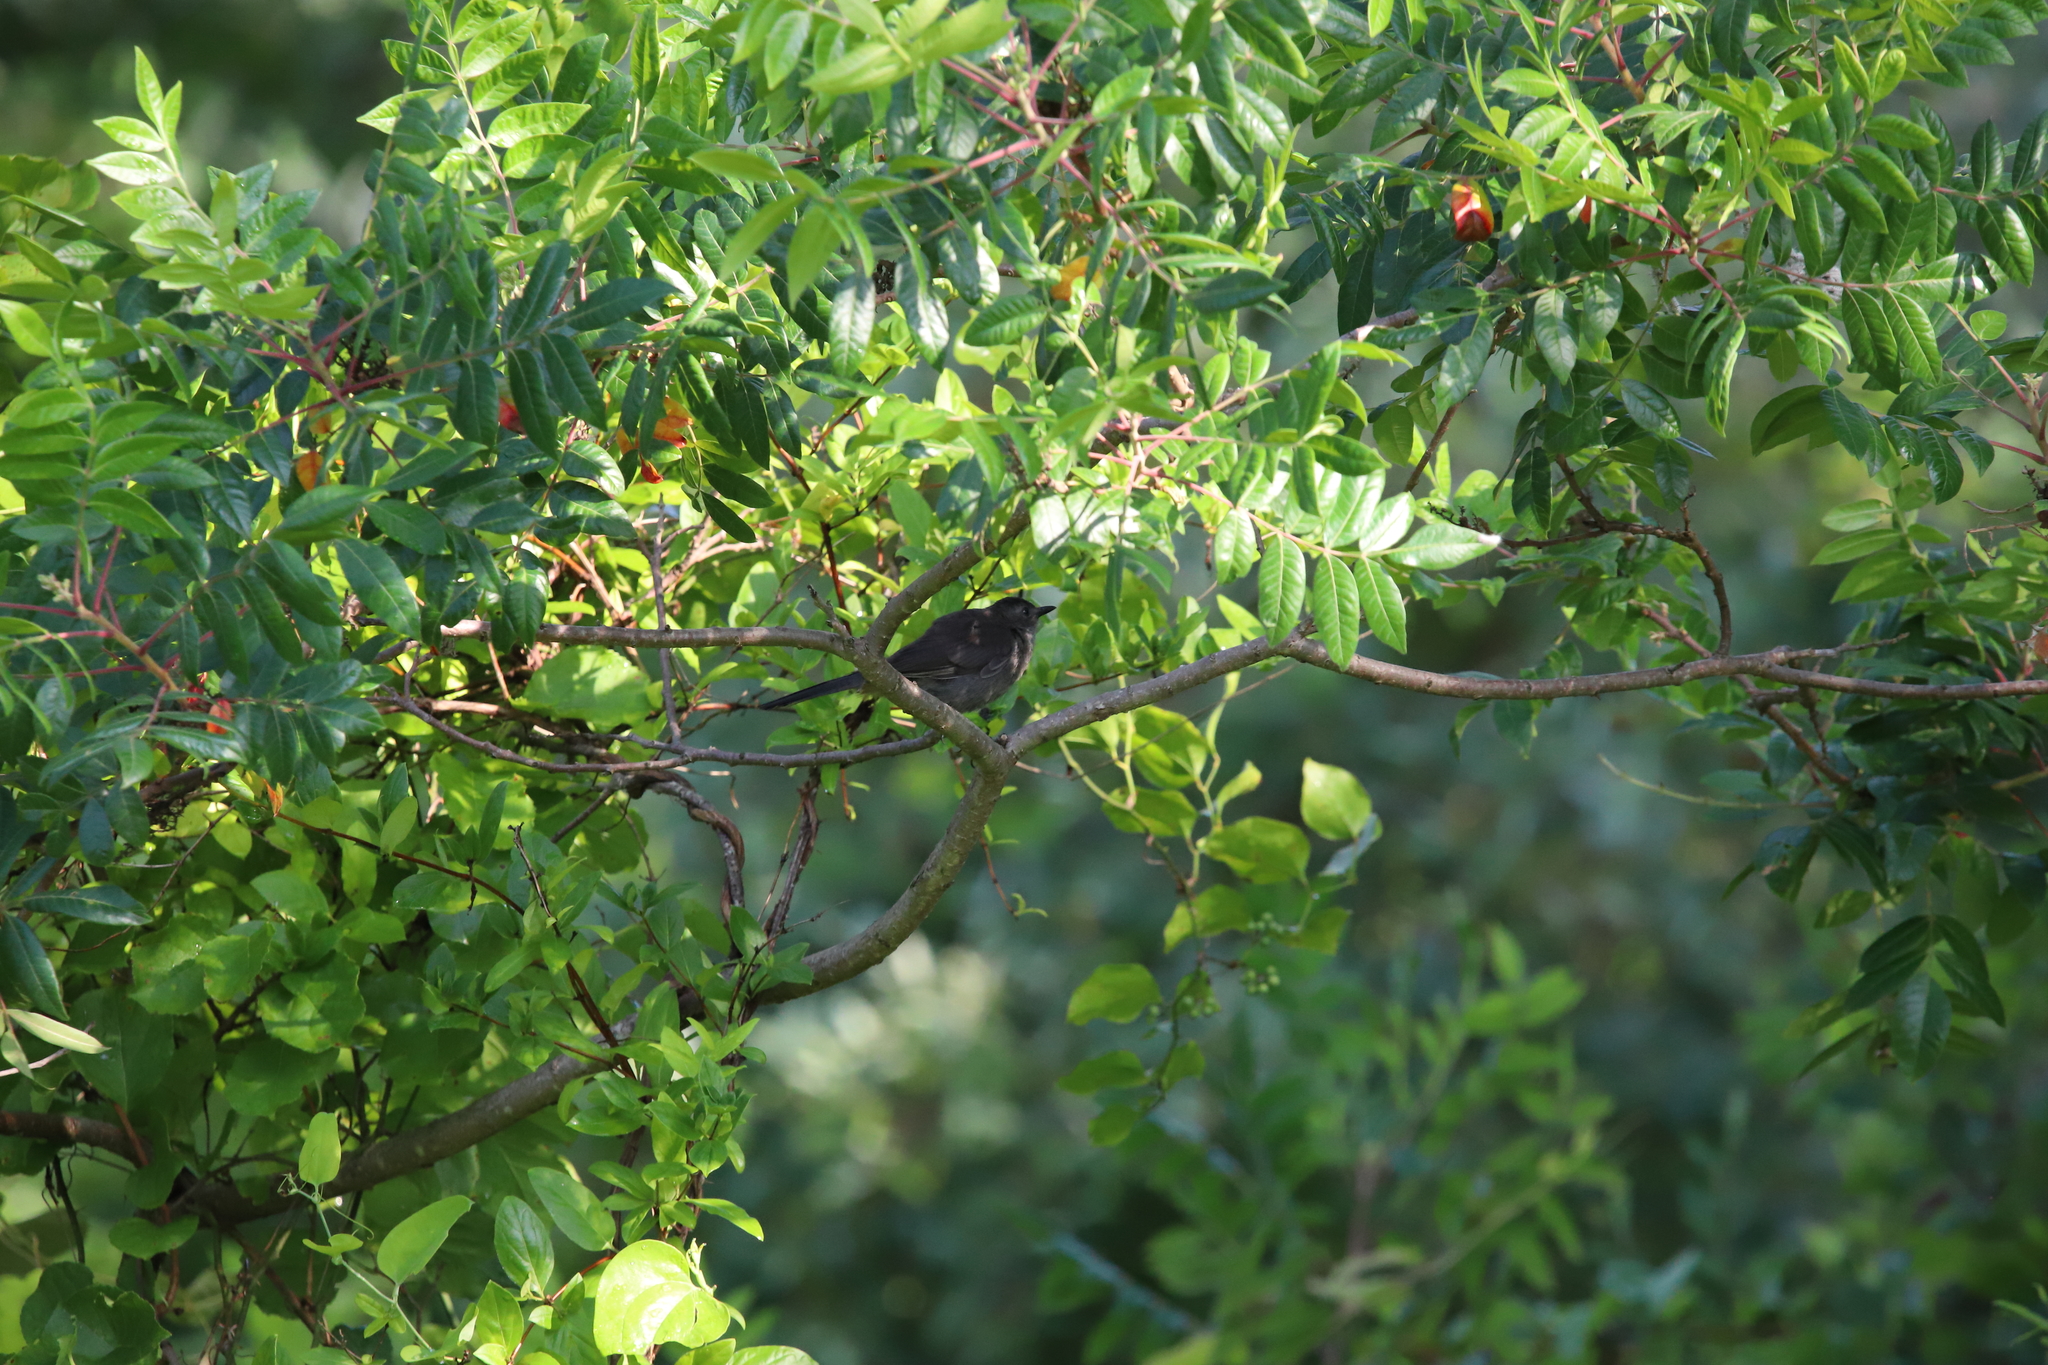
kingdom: Animalia
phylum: Chordata
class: Aves
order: Passeriformes
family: Mimidae
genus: Dumetella
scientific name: Dumetella carolinensis
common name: Gray catbird
